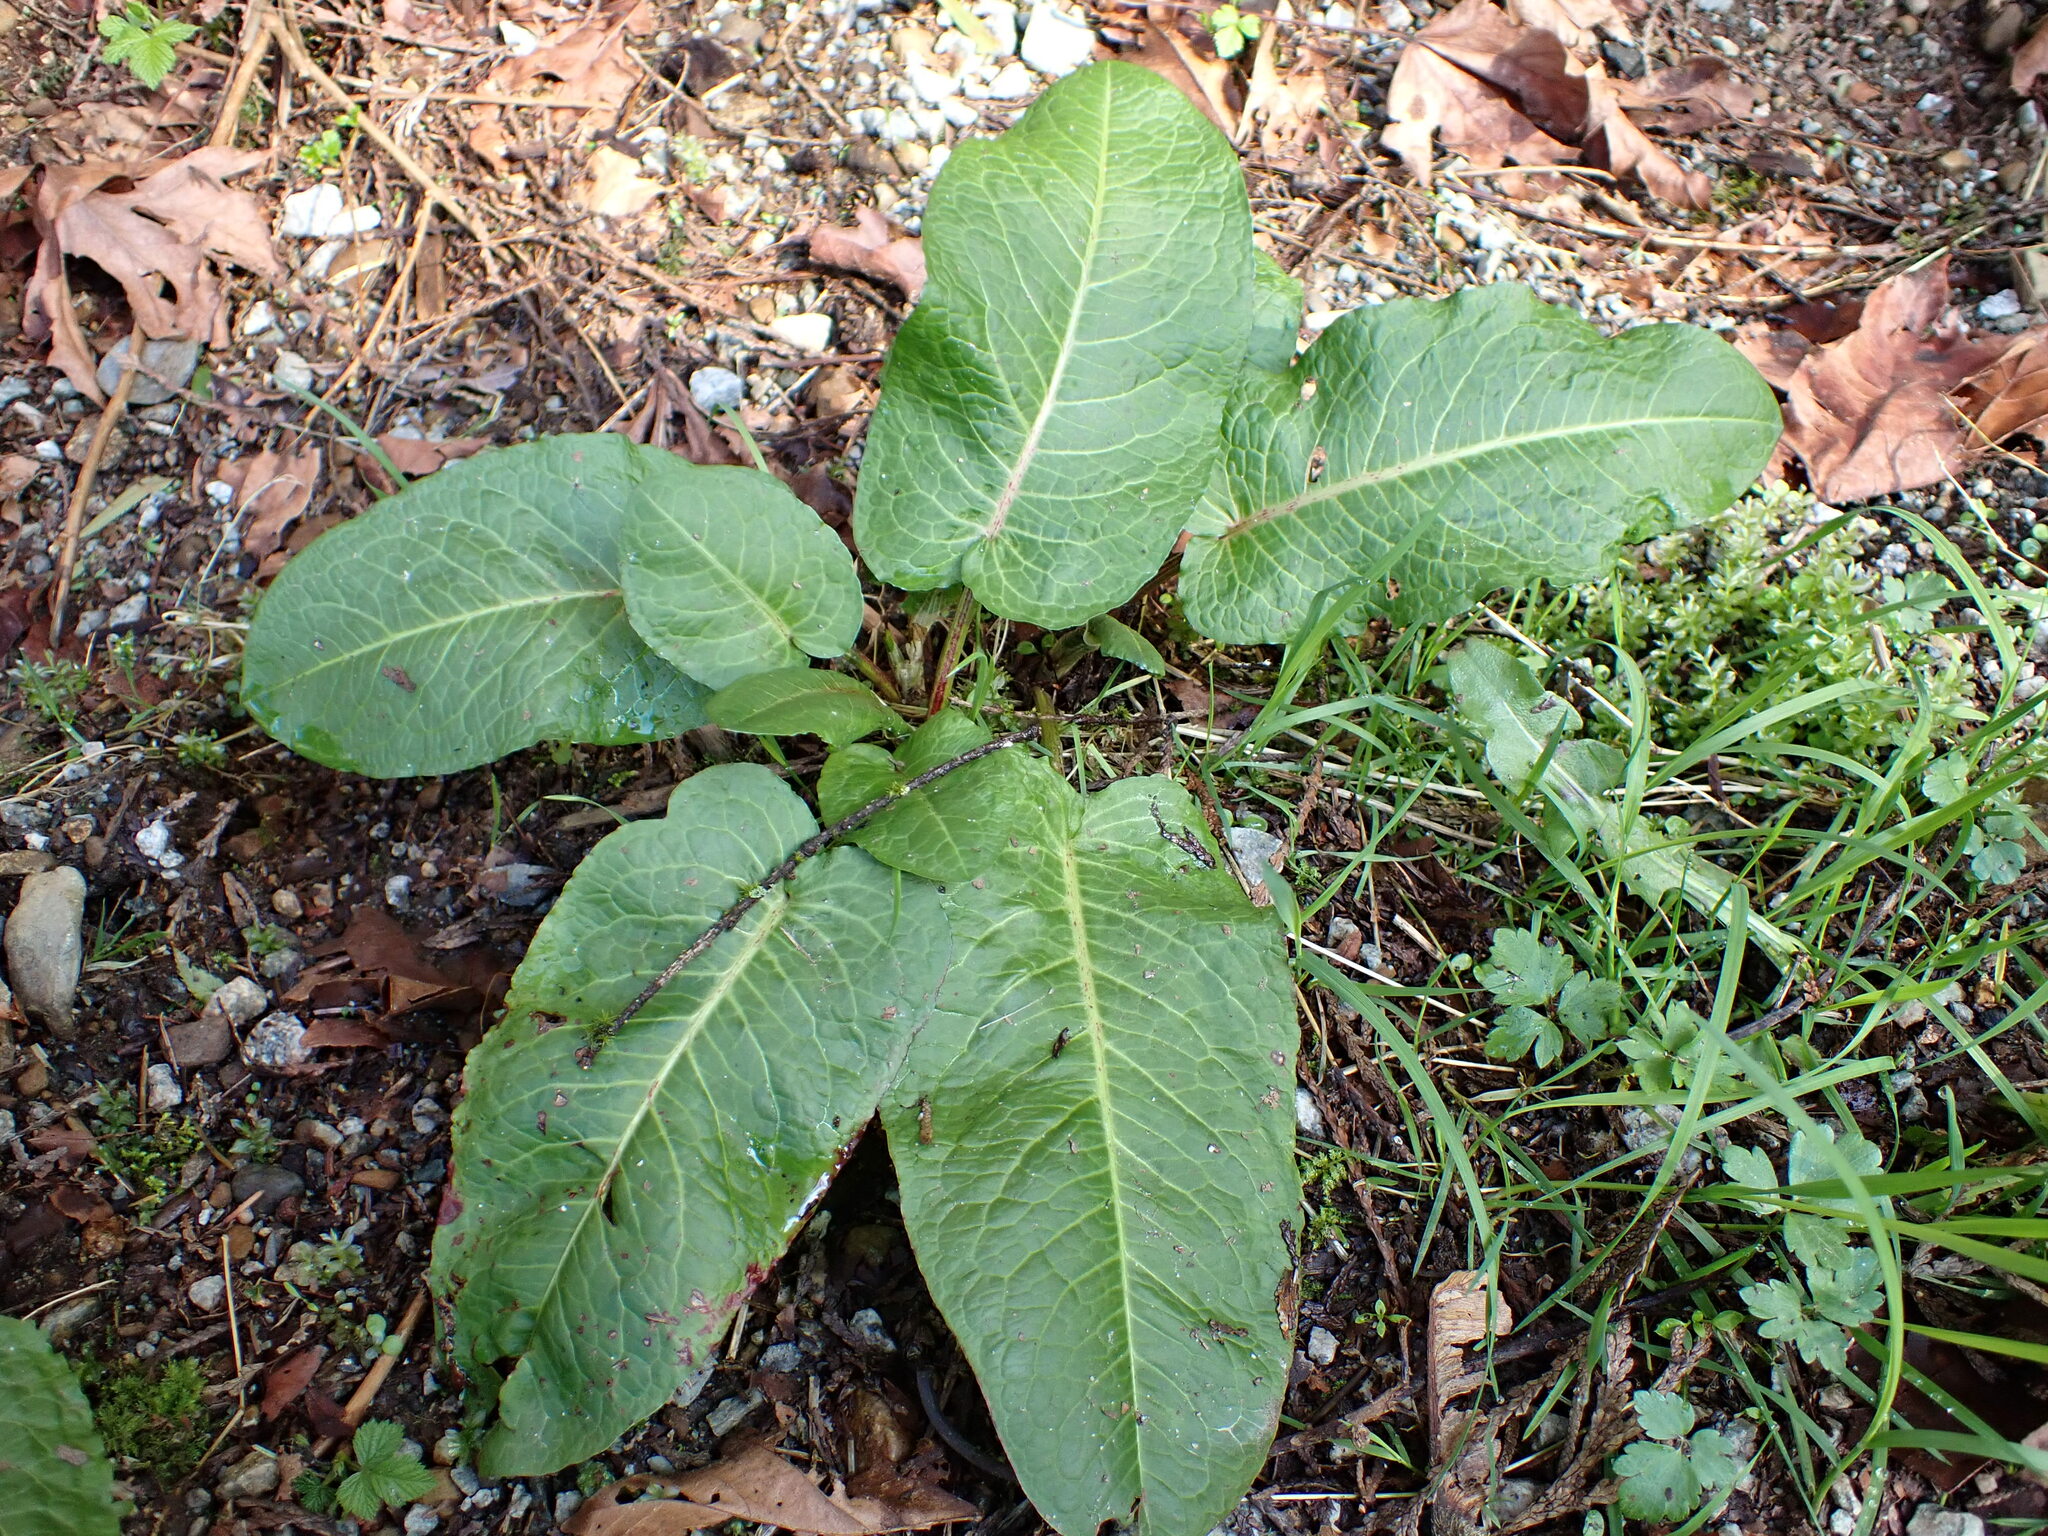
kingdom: Plantae
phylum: Tracheophyta
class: Magnoliopsida
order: Caryophyllales
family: Polygonaceae
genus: Rumex
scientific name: Rumex obtusifolius
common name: Bitter dock
